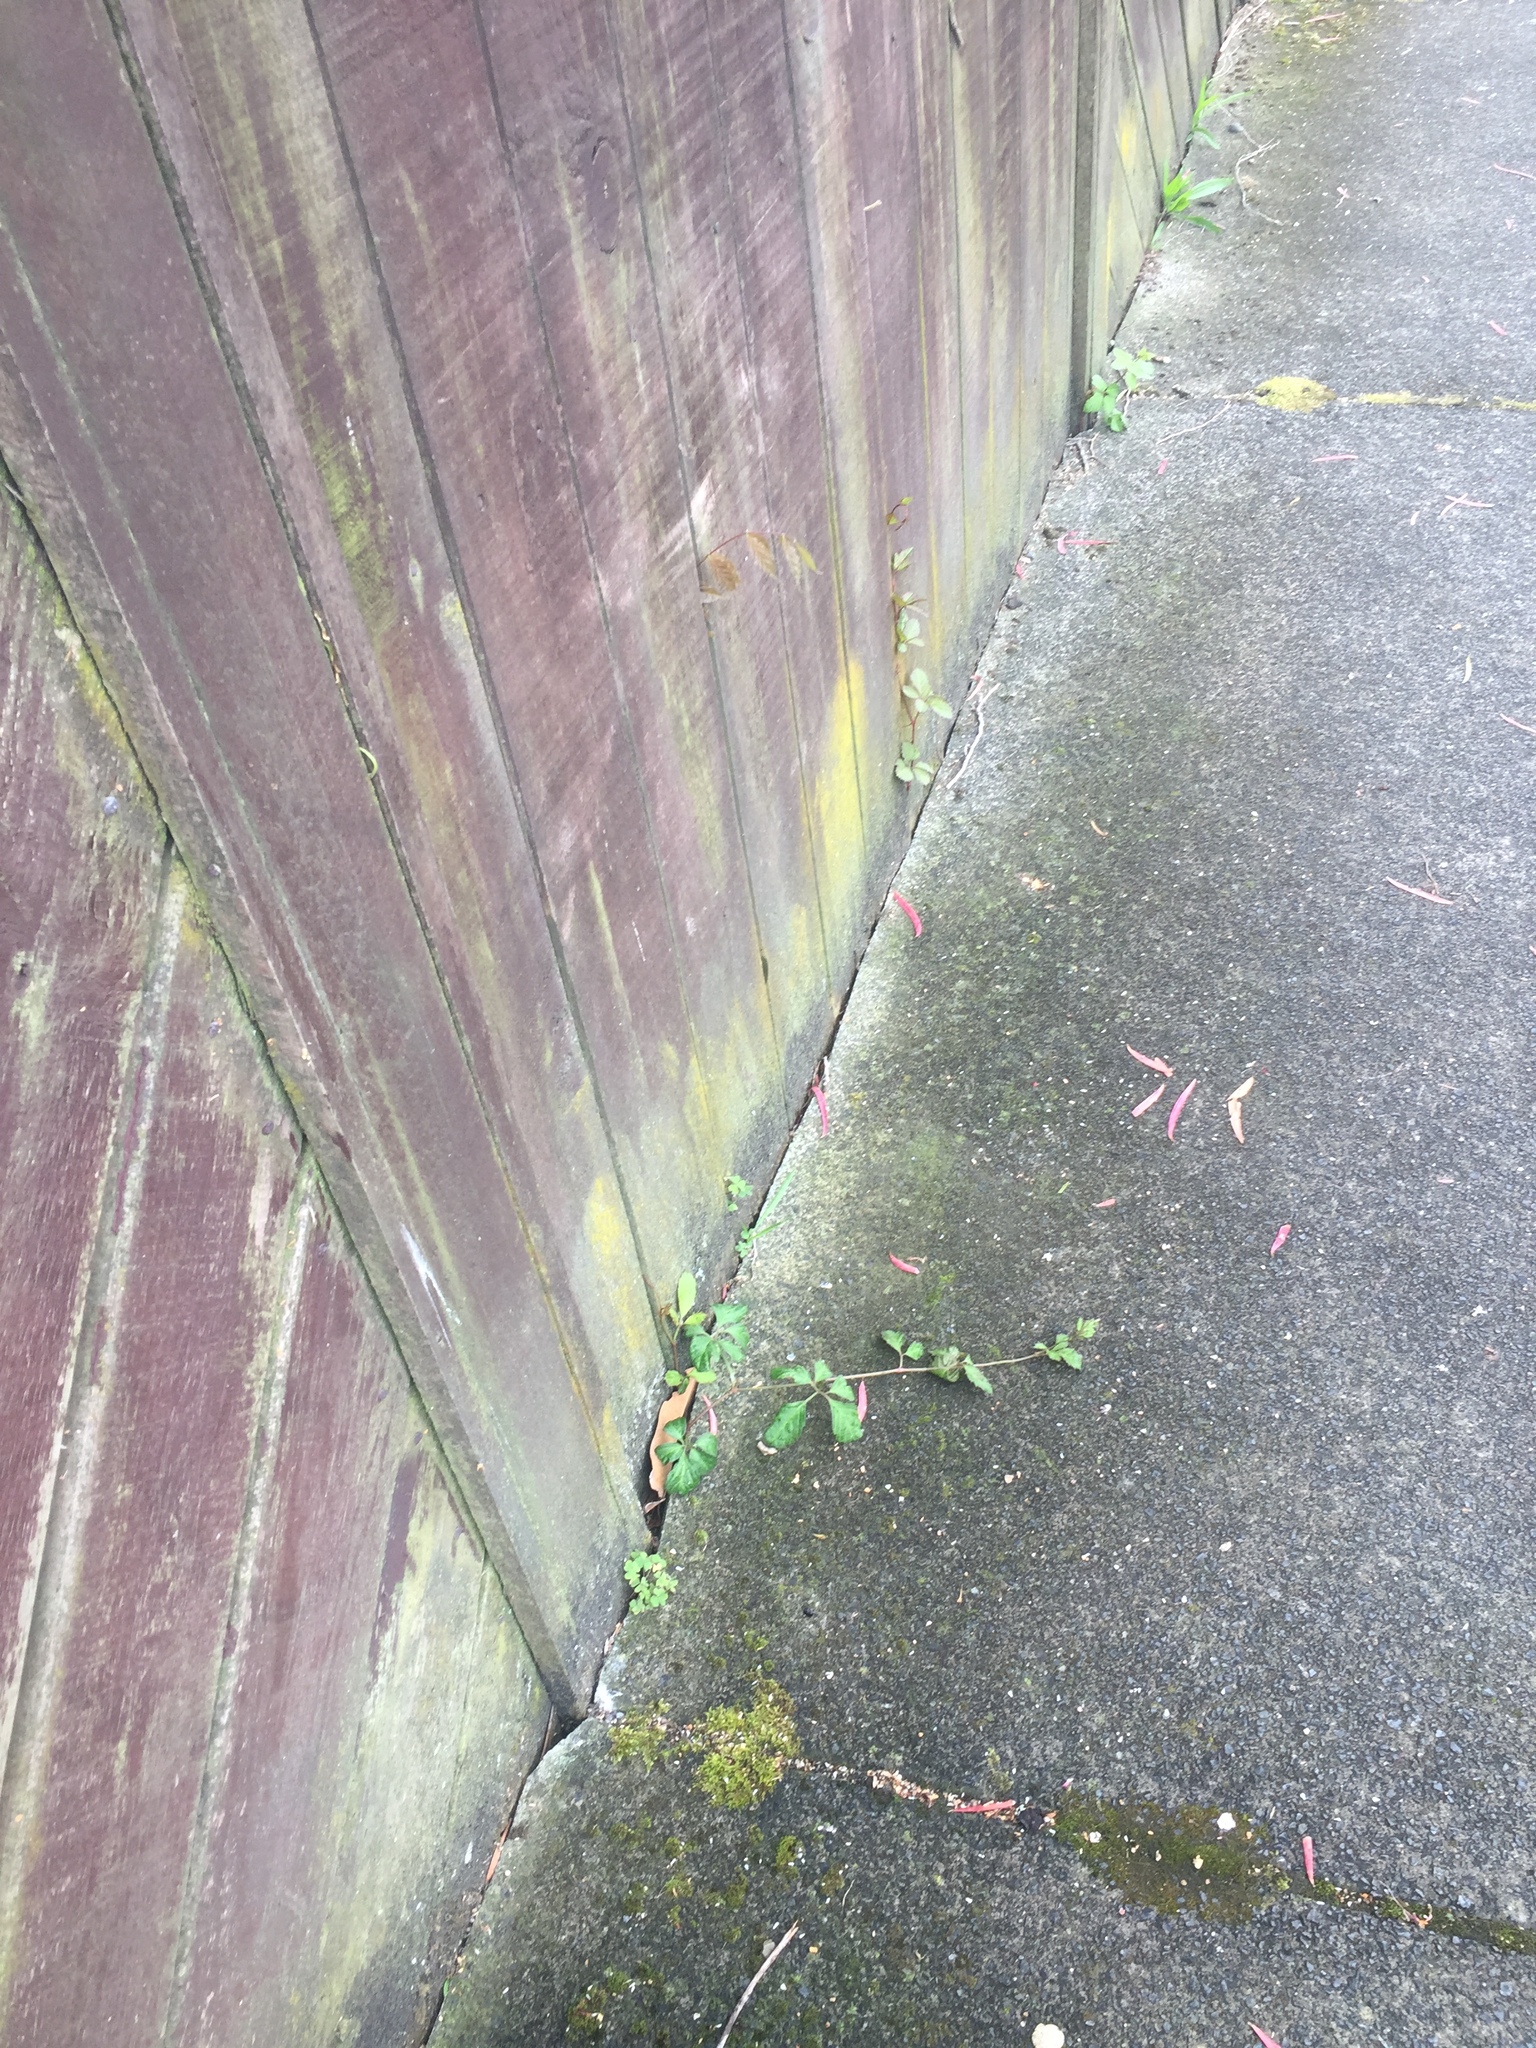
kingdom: Plantae
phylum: Tracheophyta
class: Magnoliopsida
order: Vitales
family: Vitaceae
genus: Causonis
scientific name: Causonis japonica
